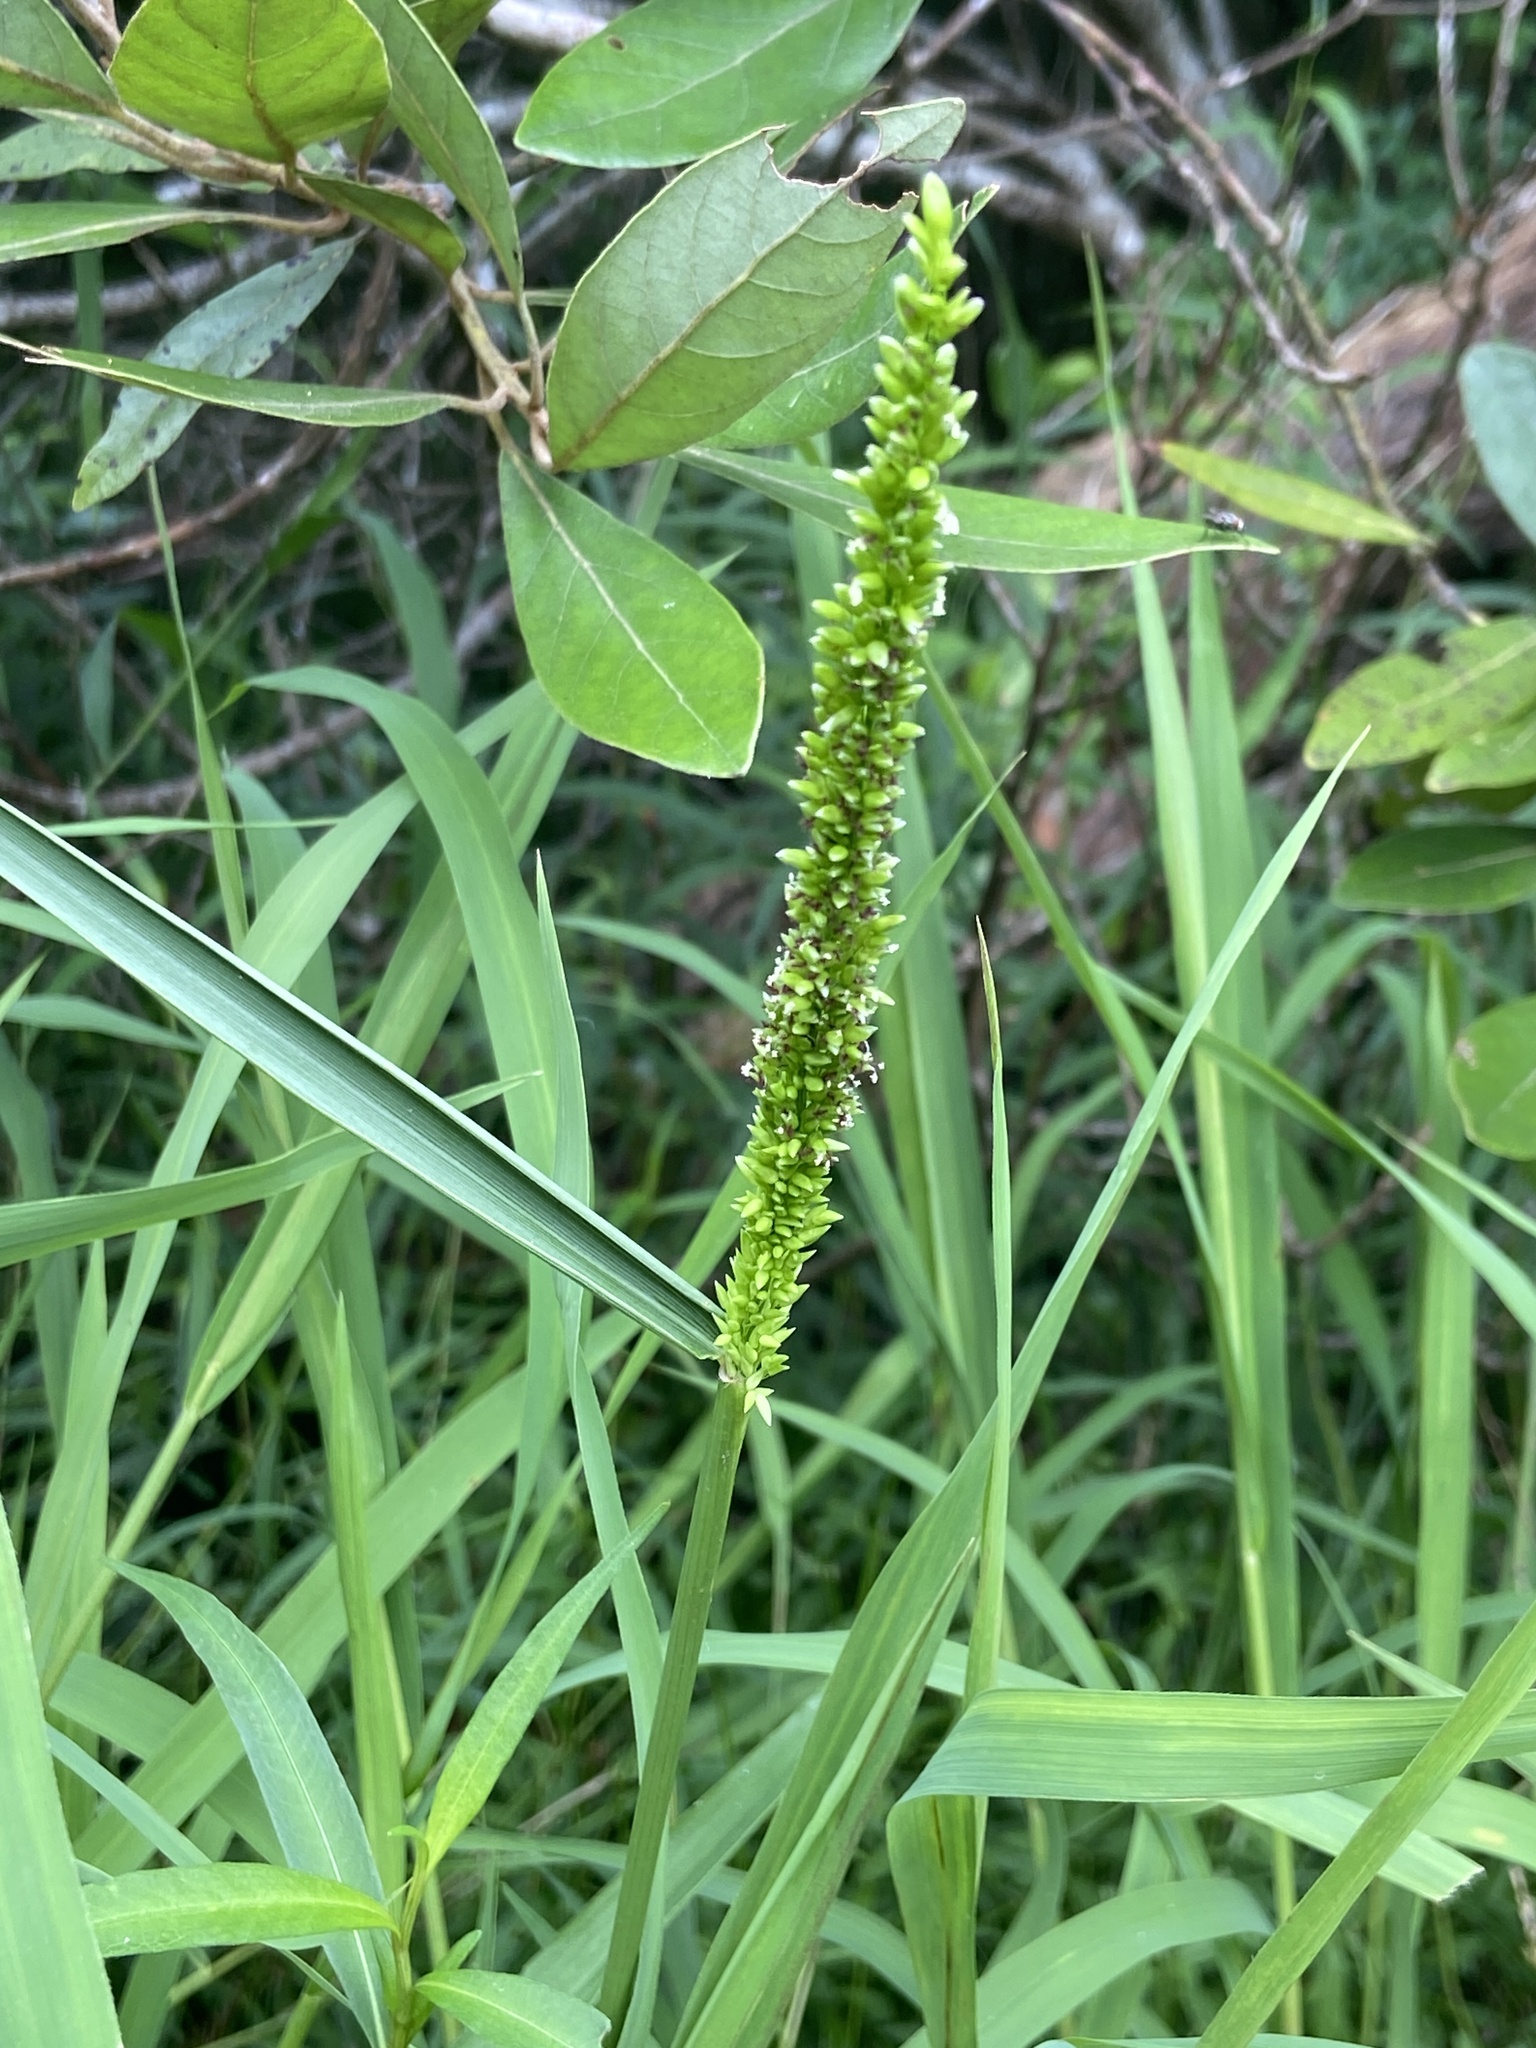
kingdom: Plantae
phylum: Tracheophyta
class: Liliopsida
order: Poales
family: Poaceae
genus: Sacciolepis
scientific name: Sacciolepis striata
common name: American cupscale
